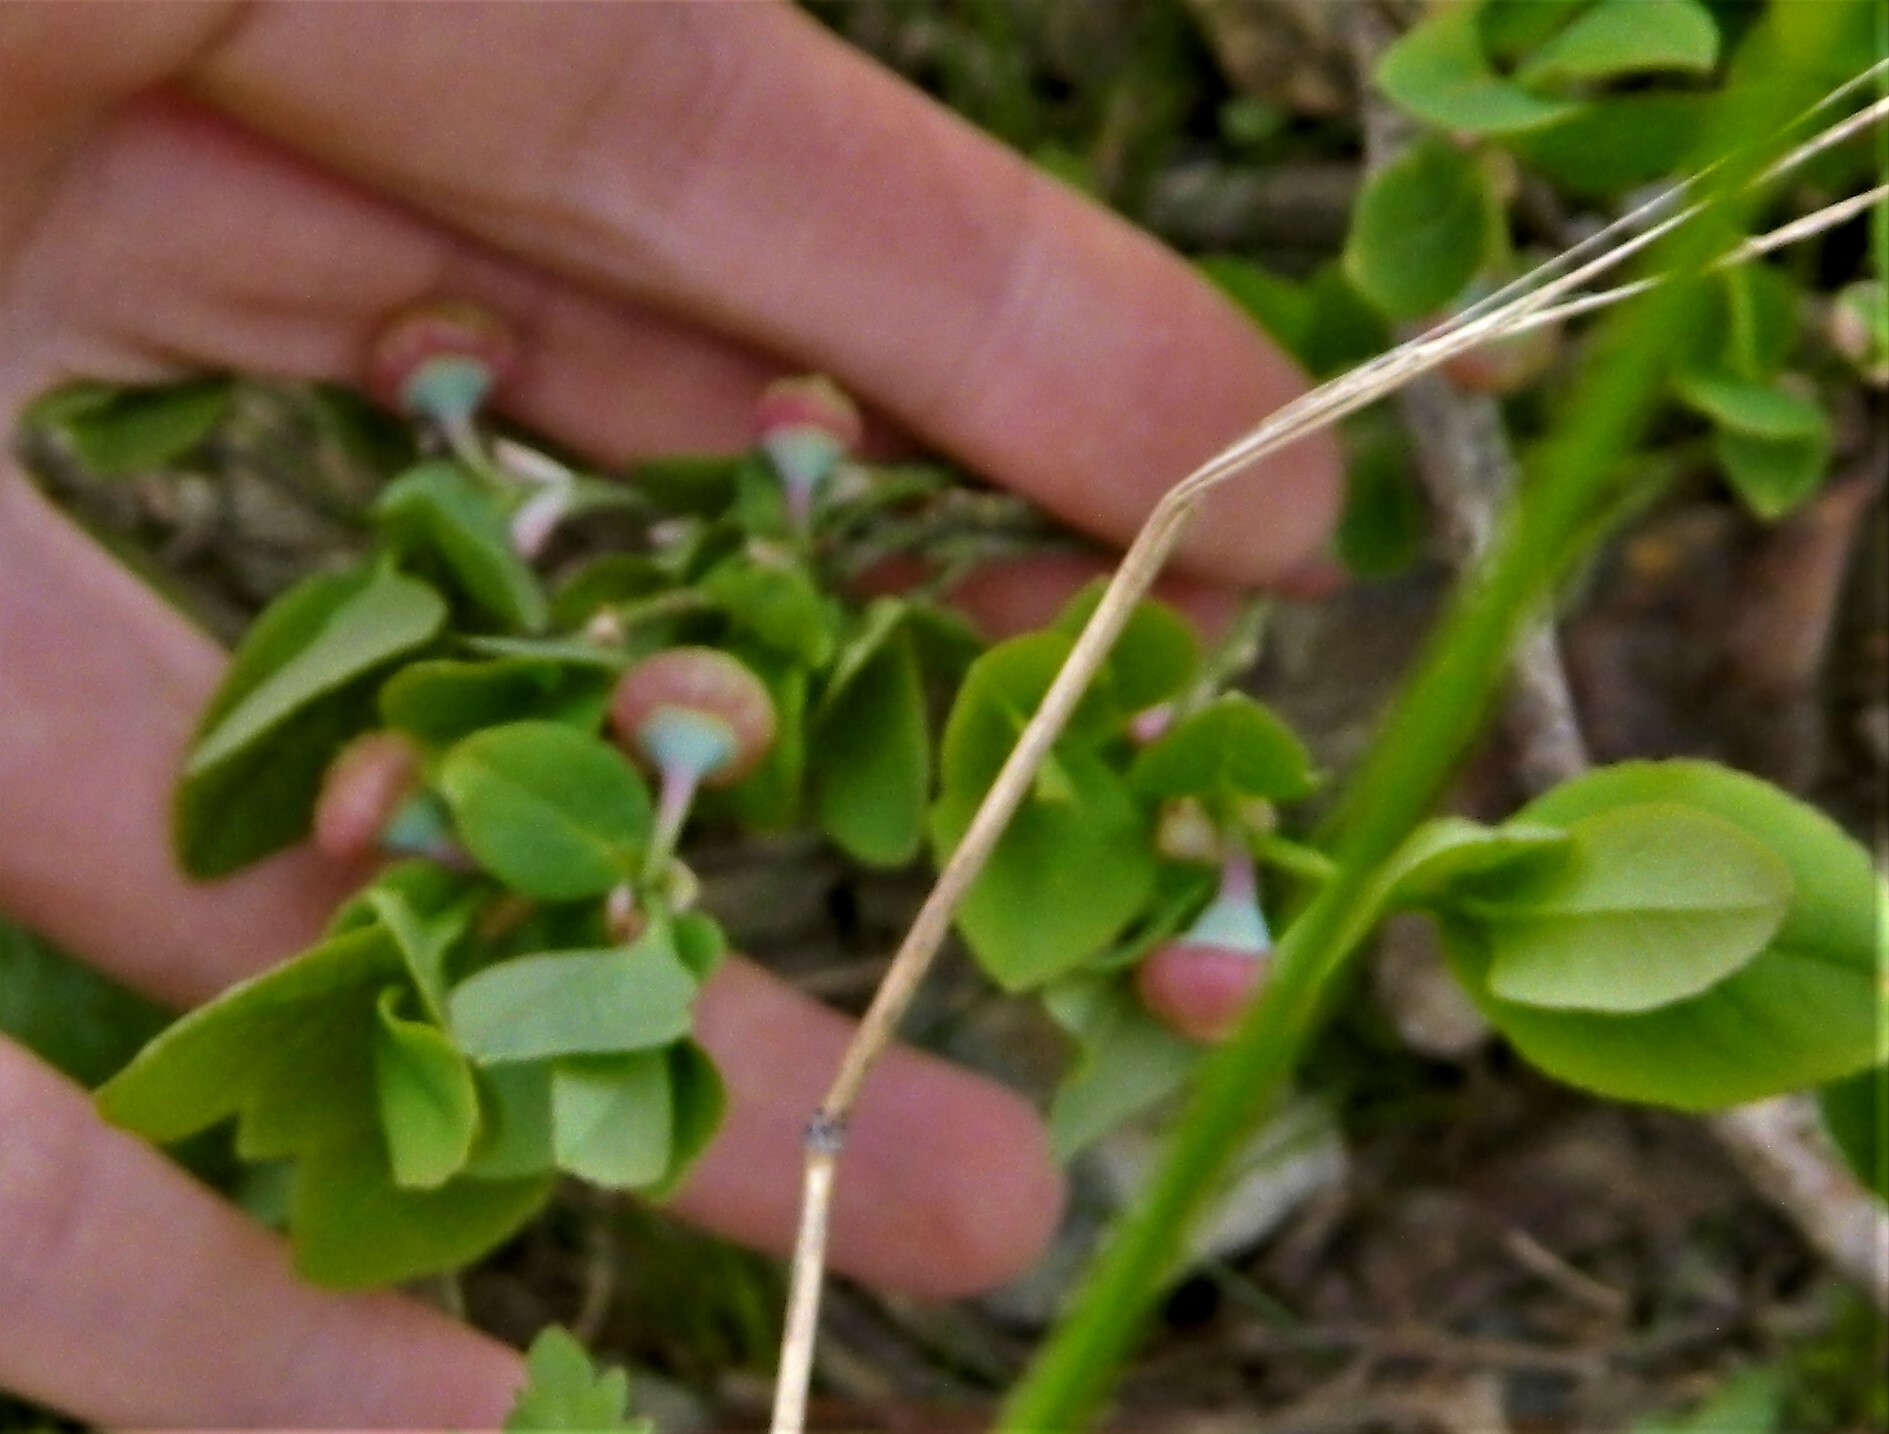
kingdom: Plantae
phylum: Tracheophyta
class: Magnoliopsida
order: Ericales
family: Ericaceae
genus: Vaccinium
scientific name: Vaccinium myrtillus
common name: Bilberry
